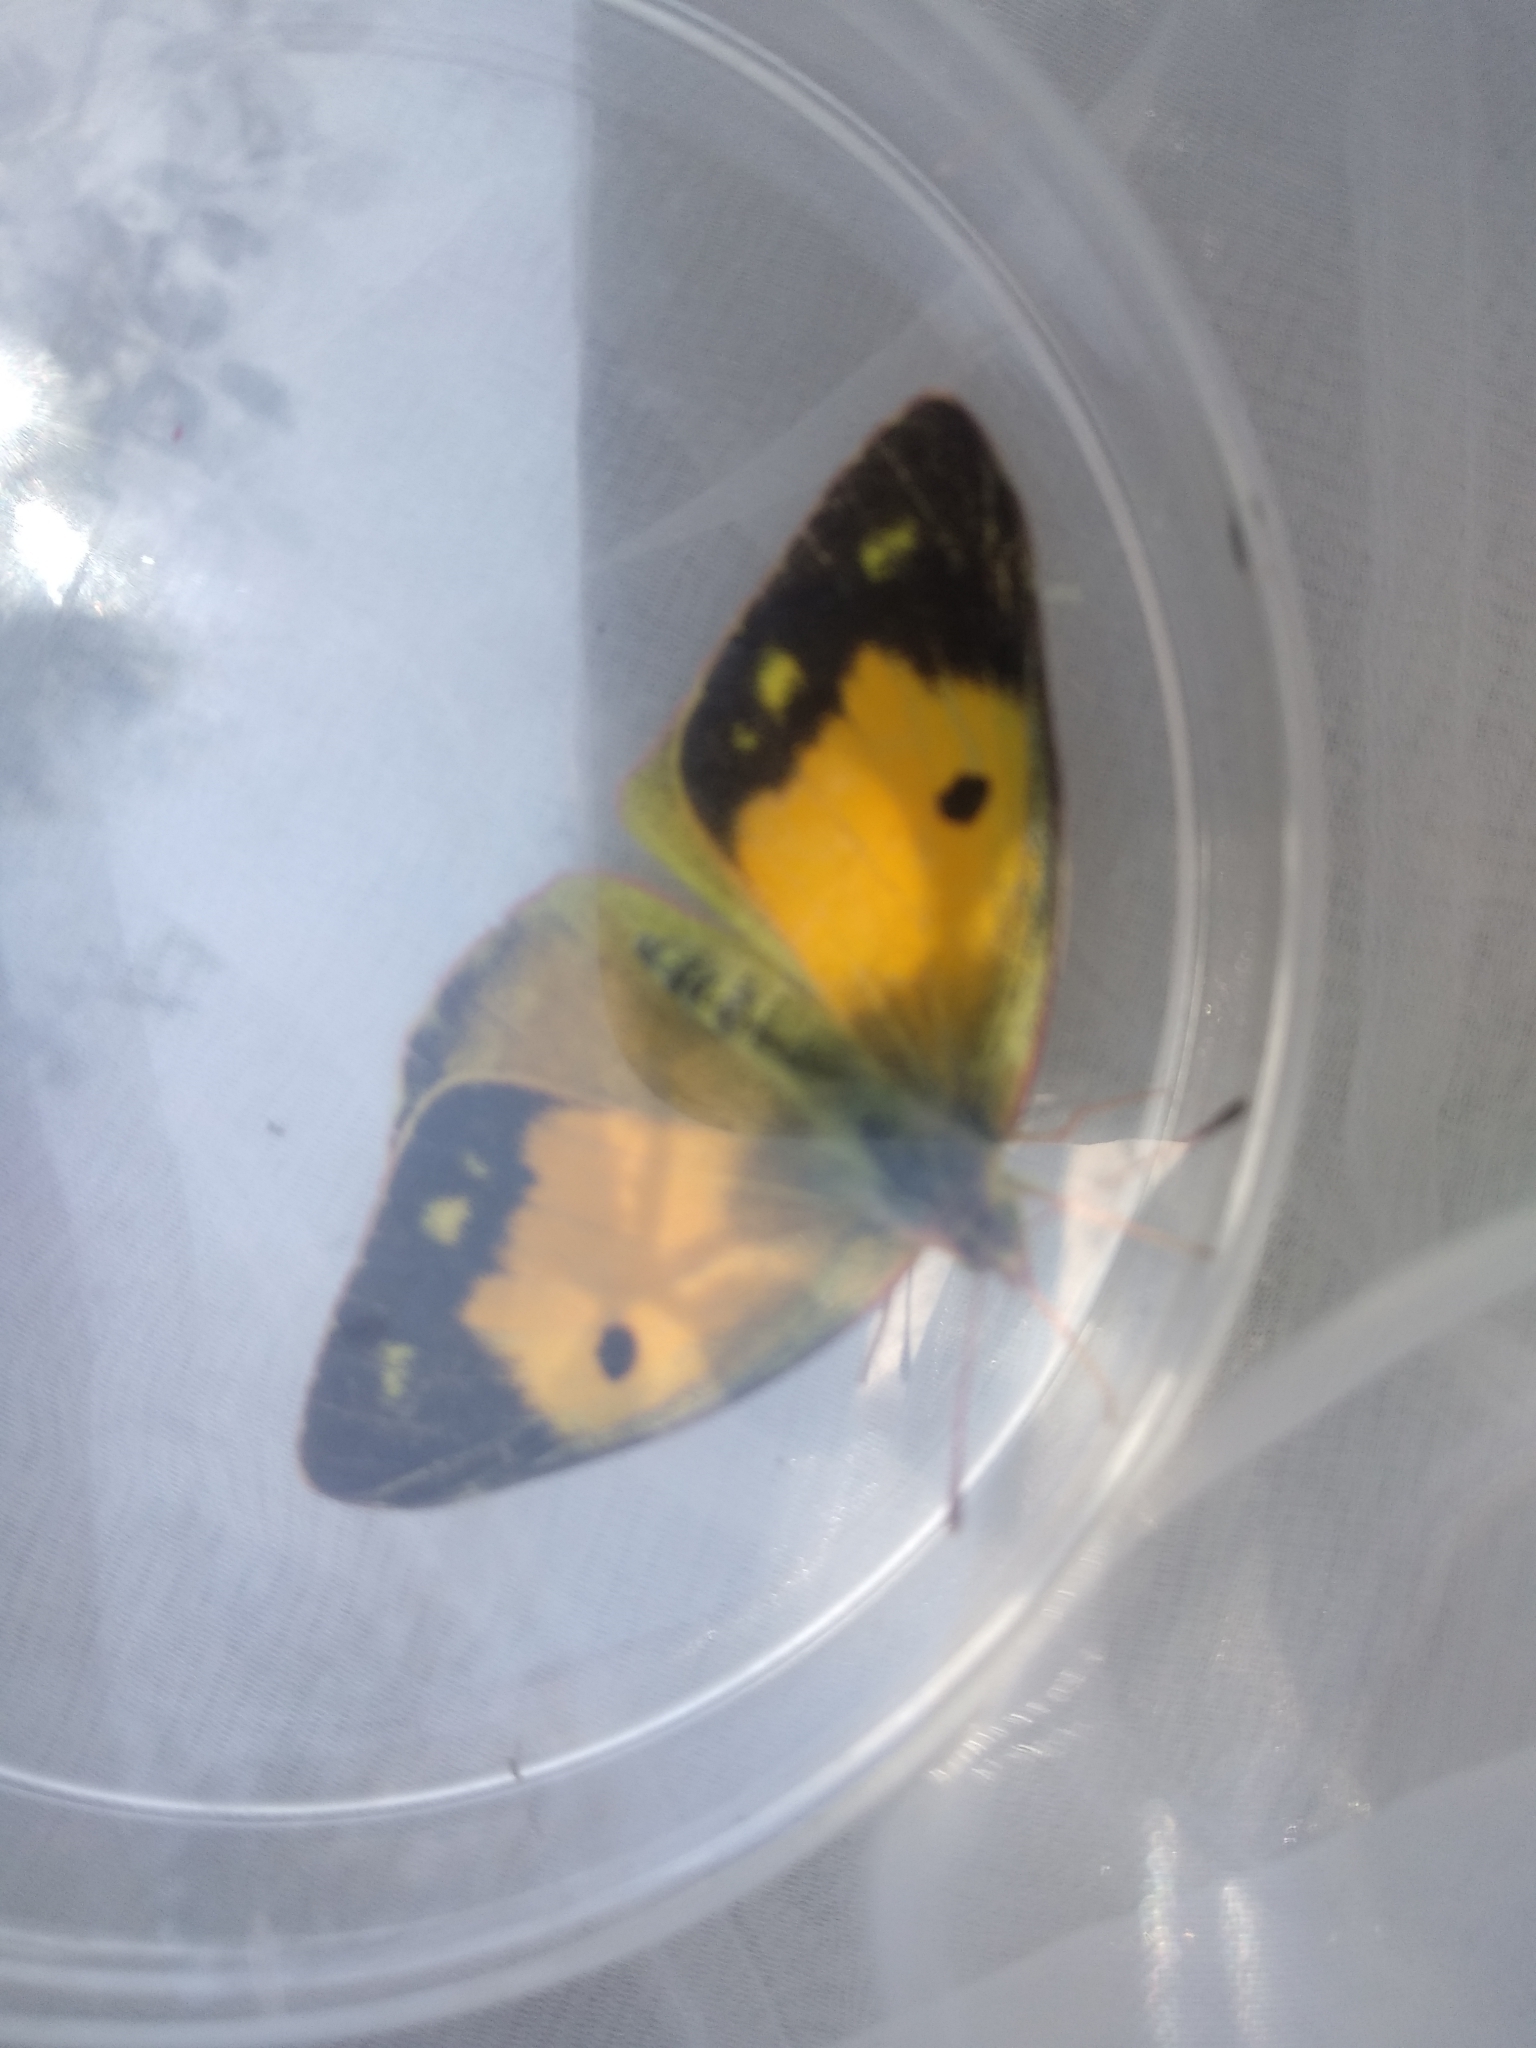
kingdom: Animalia
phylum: Arthropoda
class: Insecta
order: Lepidoptera
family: Pieridae
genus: Colias
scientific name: Colias croceus
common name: Clouded yellow
